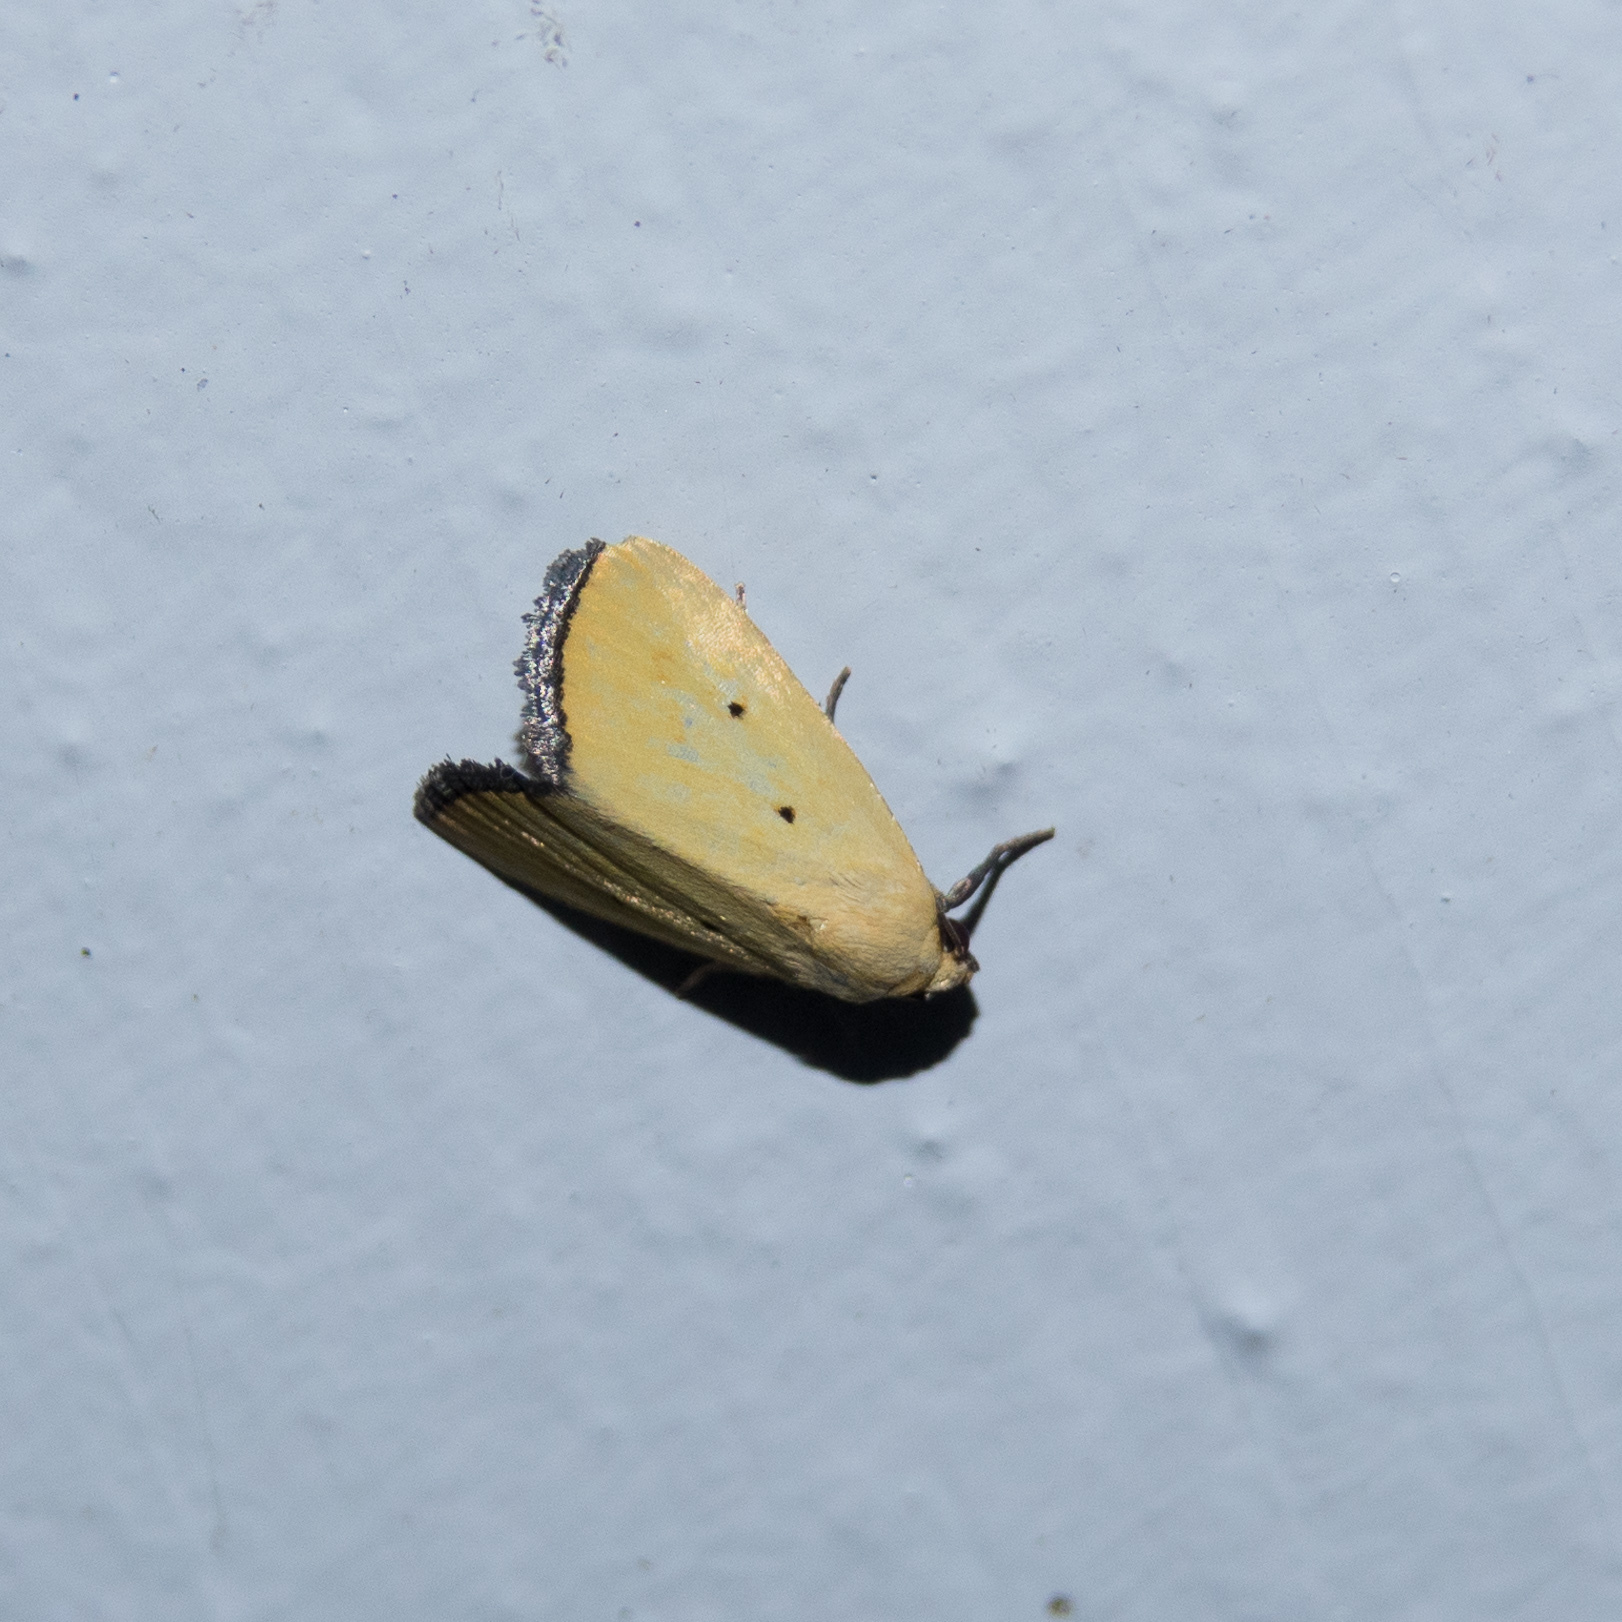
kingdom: Animalia
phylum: Arthropoda
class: Insecta
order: Lepidoptera
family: Noctuidae
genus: Marimatha
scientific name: Marimatha nigrofimbria
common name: Black-bordered lemon moth
